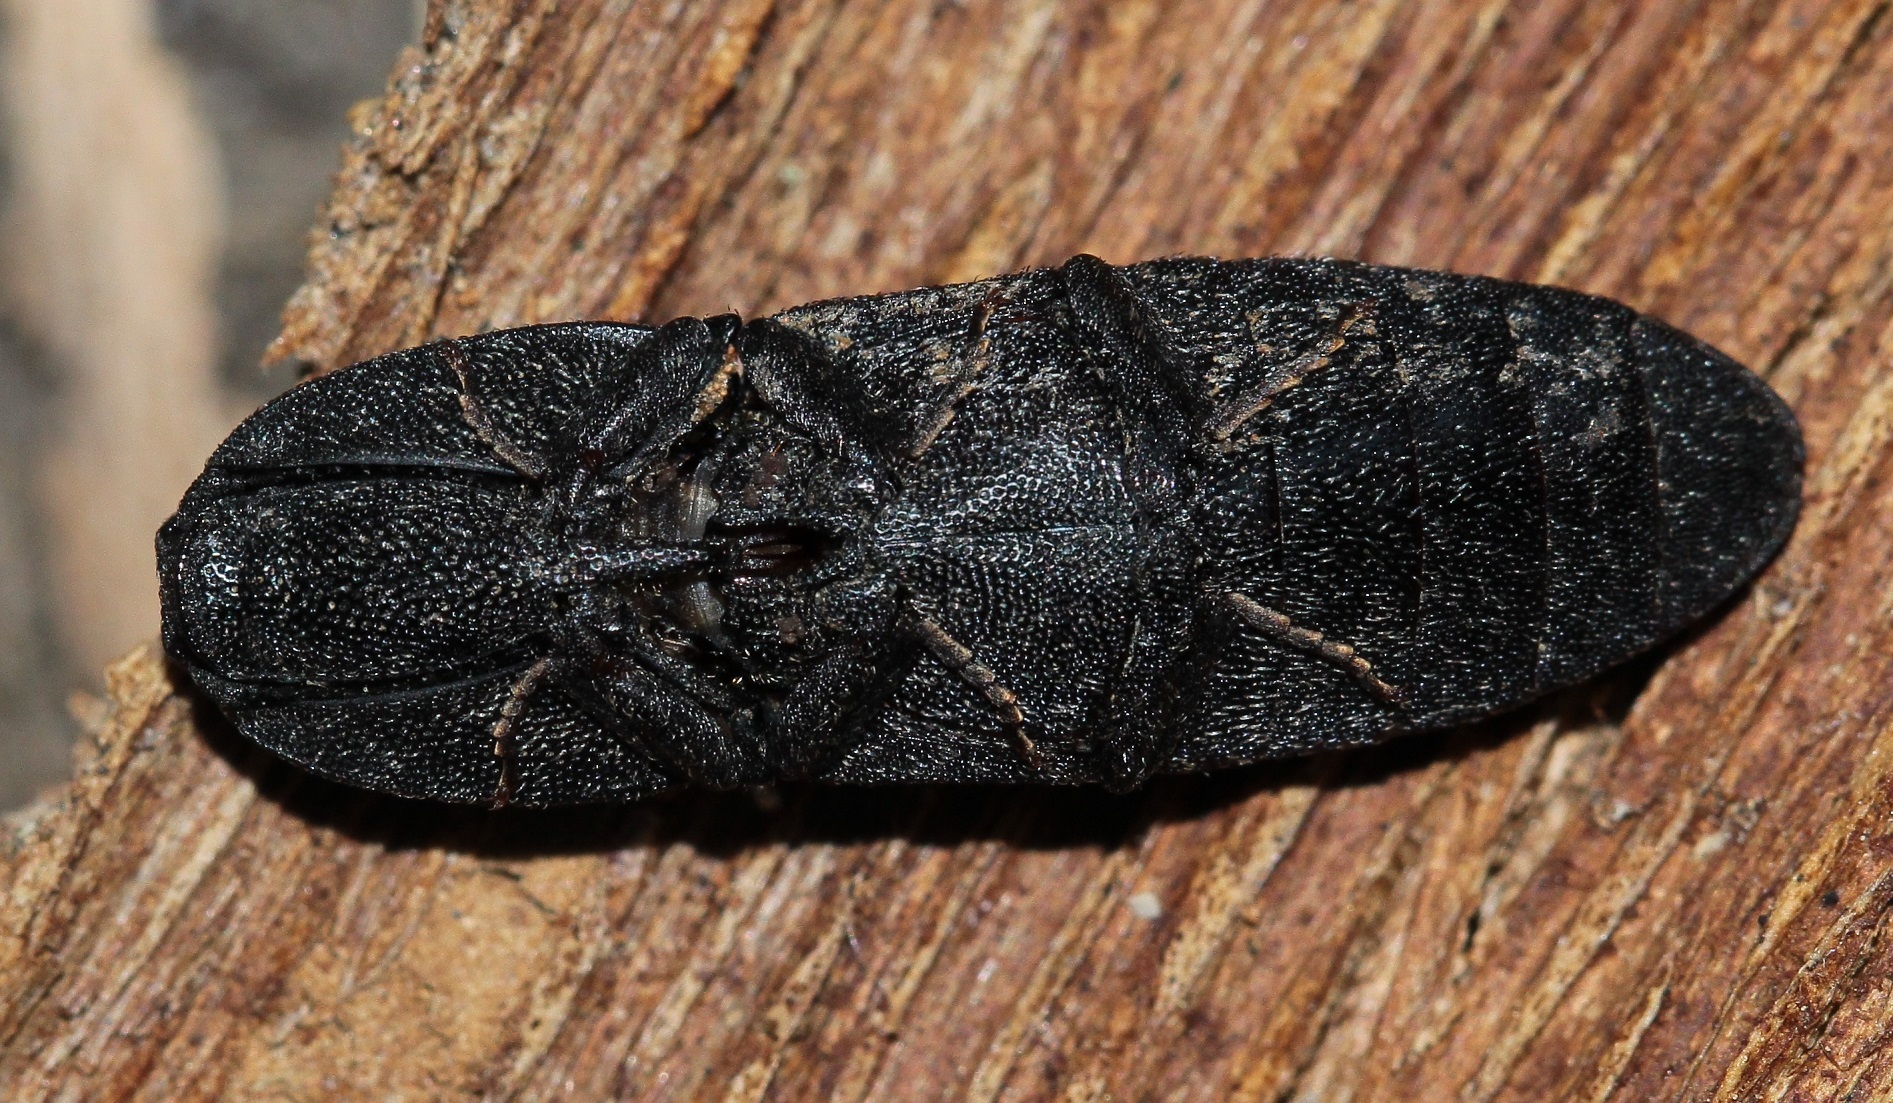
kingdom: Animalia
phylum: Arthropoda
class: Insecta
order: Coleoptera
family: Elateridae
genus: Lacon
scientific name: Lacon punctatus
